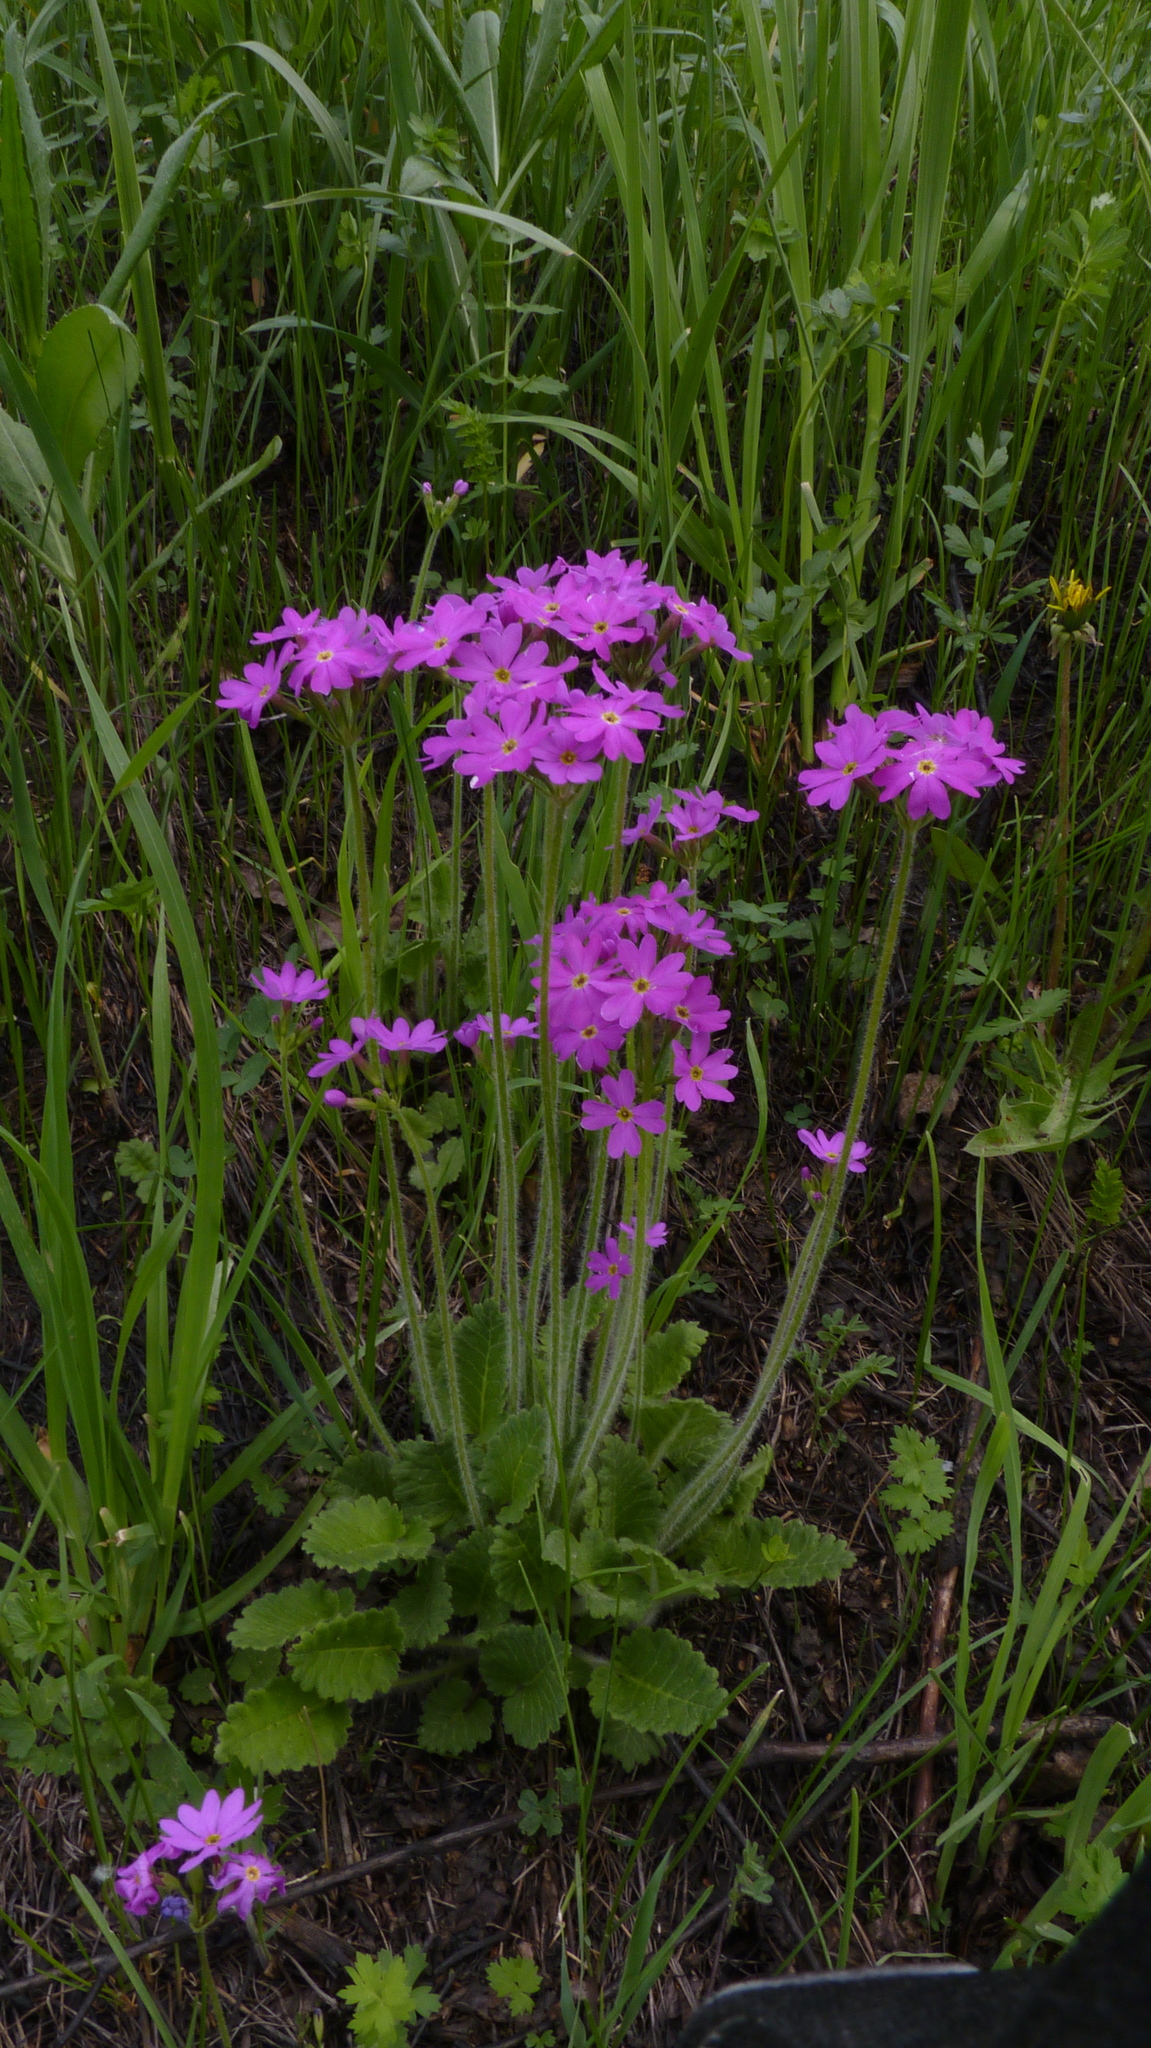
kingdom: Plantae
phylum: Tracheophyta
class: Magnoliopsida
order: Ericales
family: Primulaceae
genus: Primula
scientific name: Primula cortusoides
